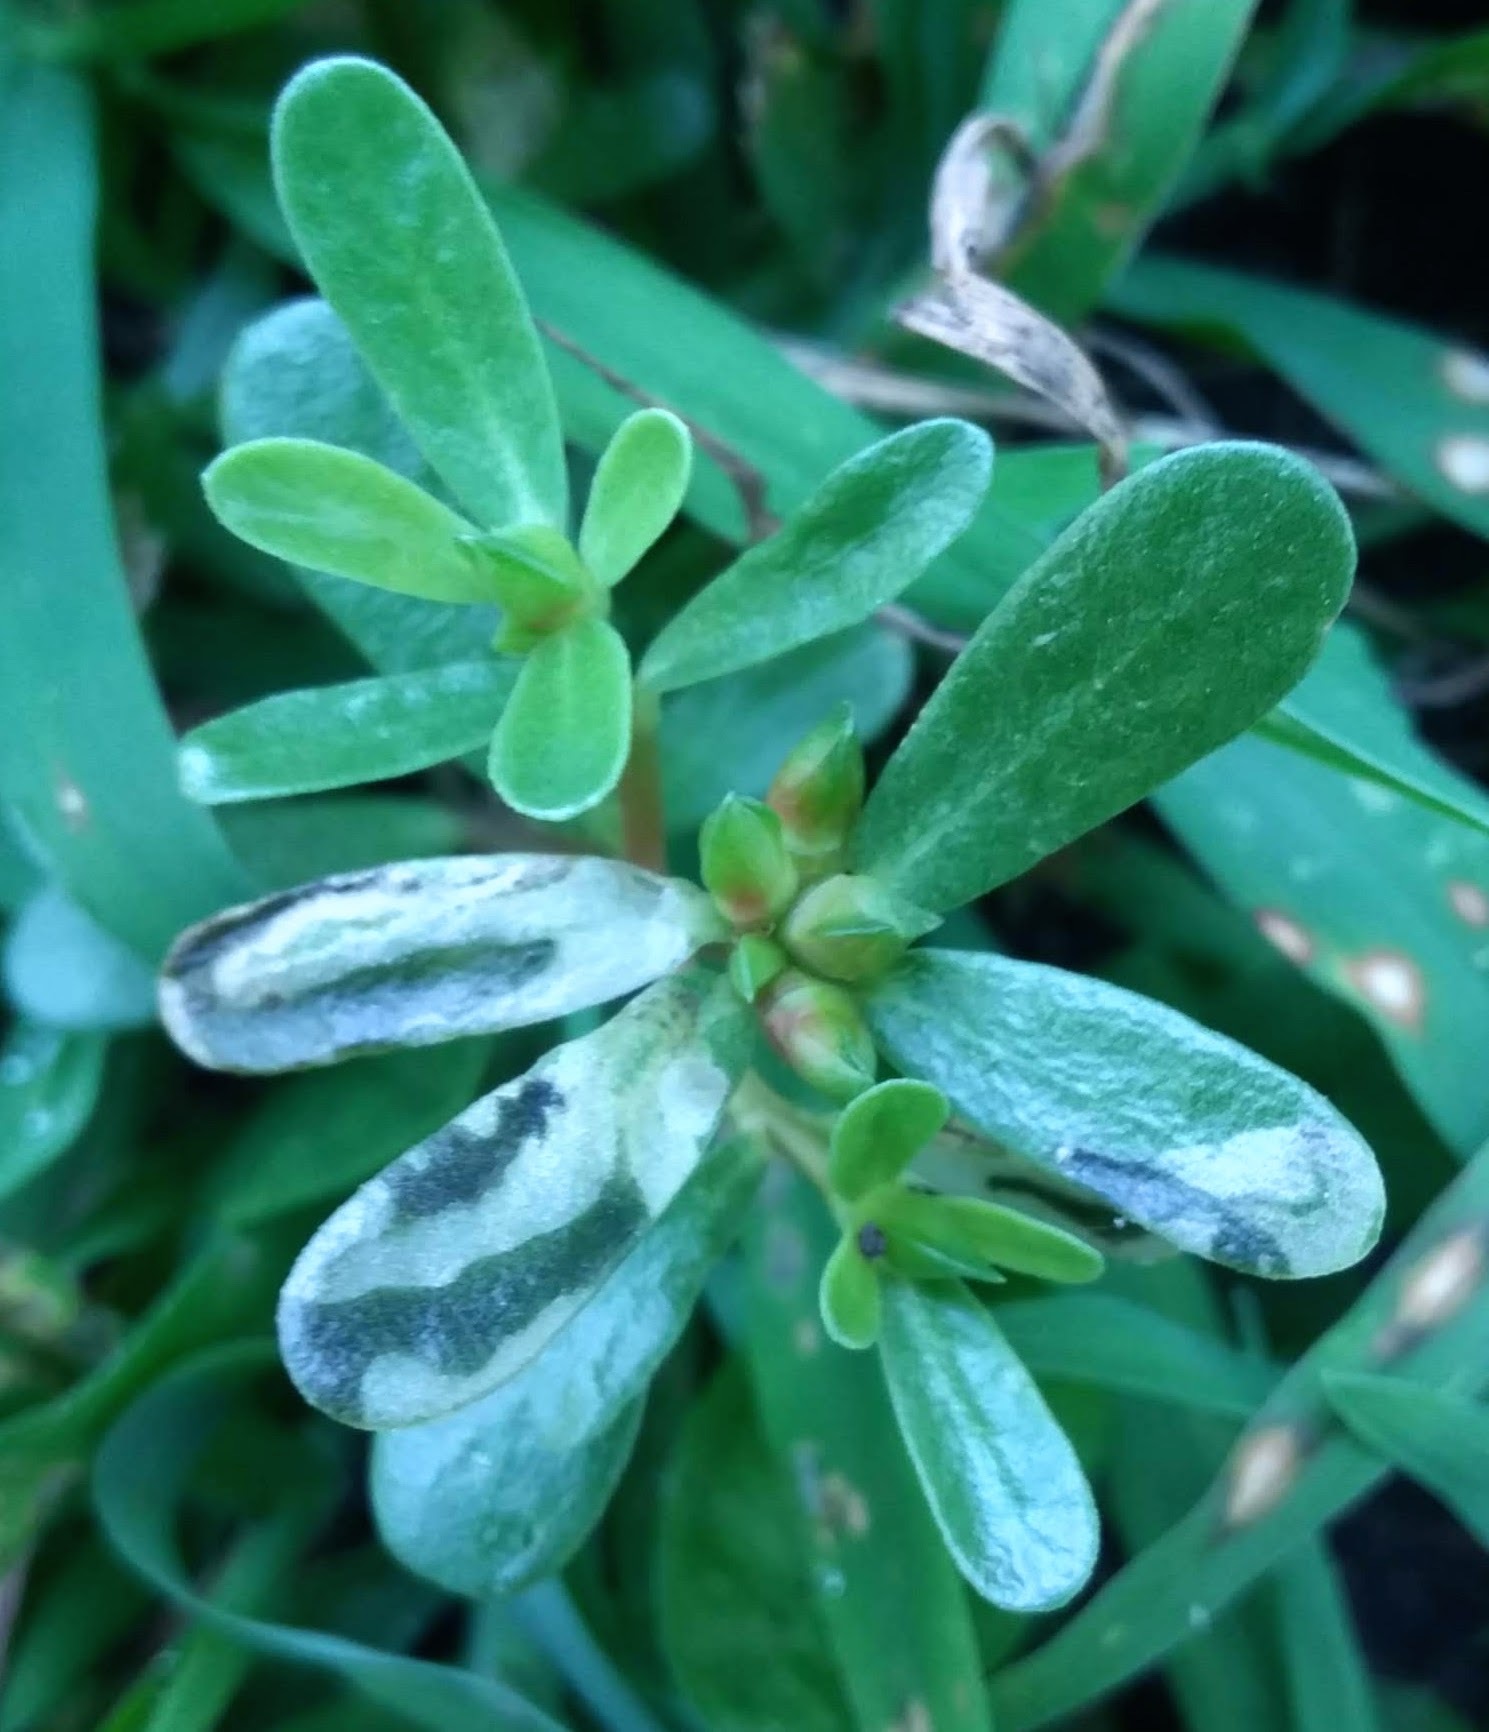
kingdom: Animalia
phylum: Arthropoda
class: Insecta
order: Hymenoptera
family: Argidae
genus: Schizocerella
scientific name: Schizocerella pilicornis
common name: Purslane sawfly
